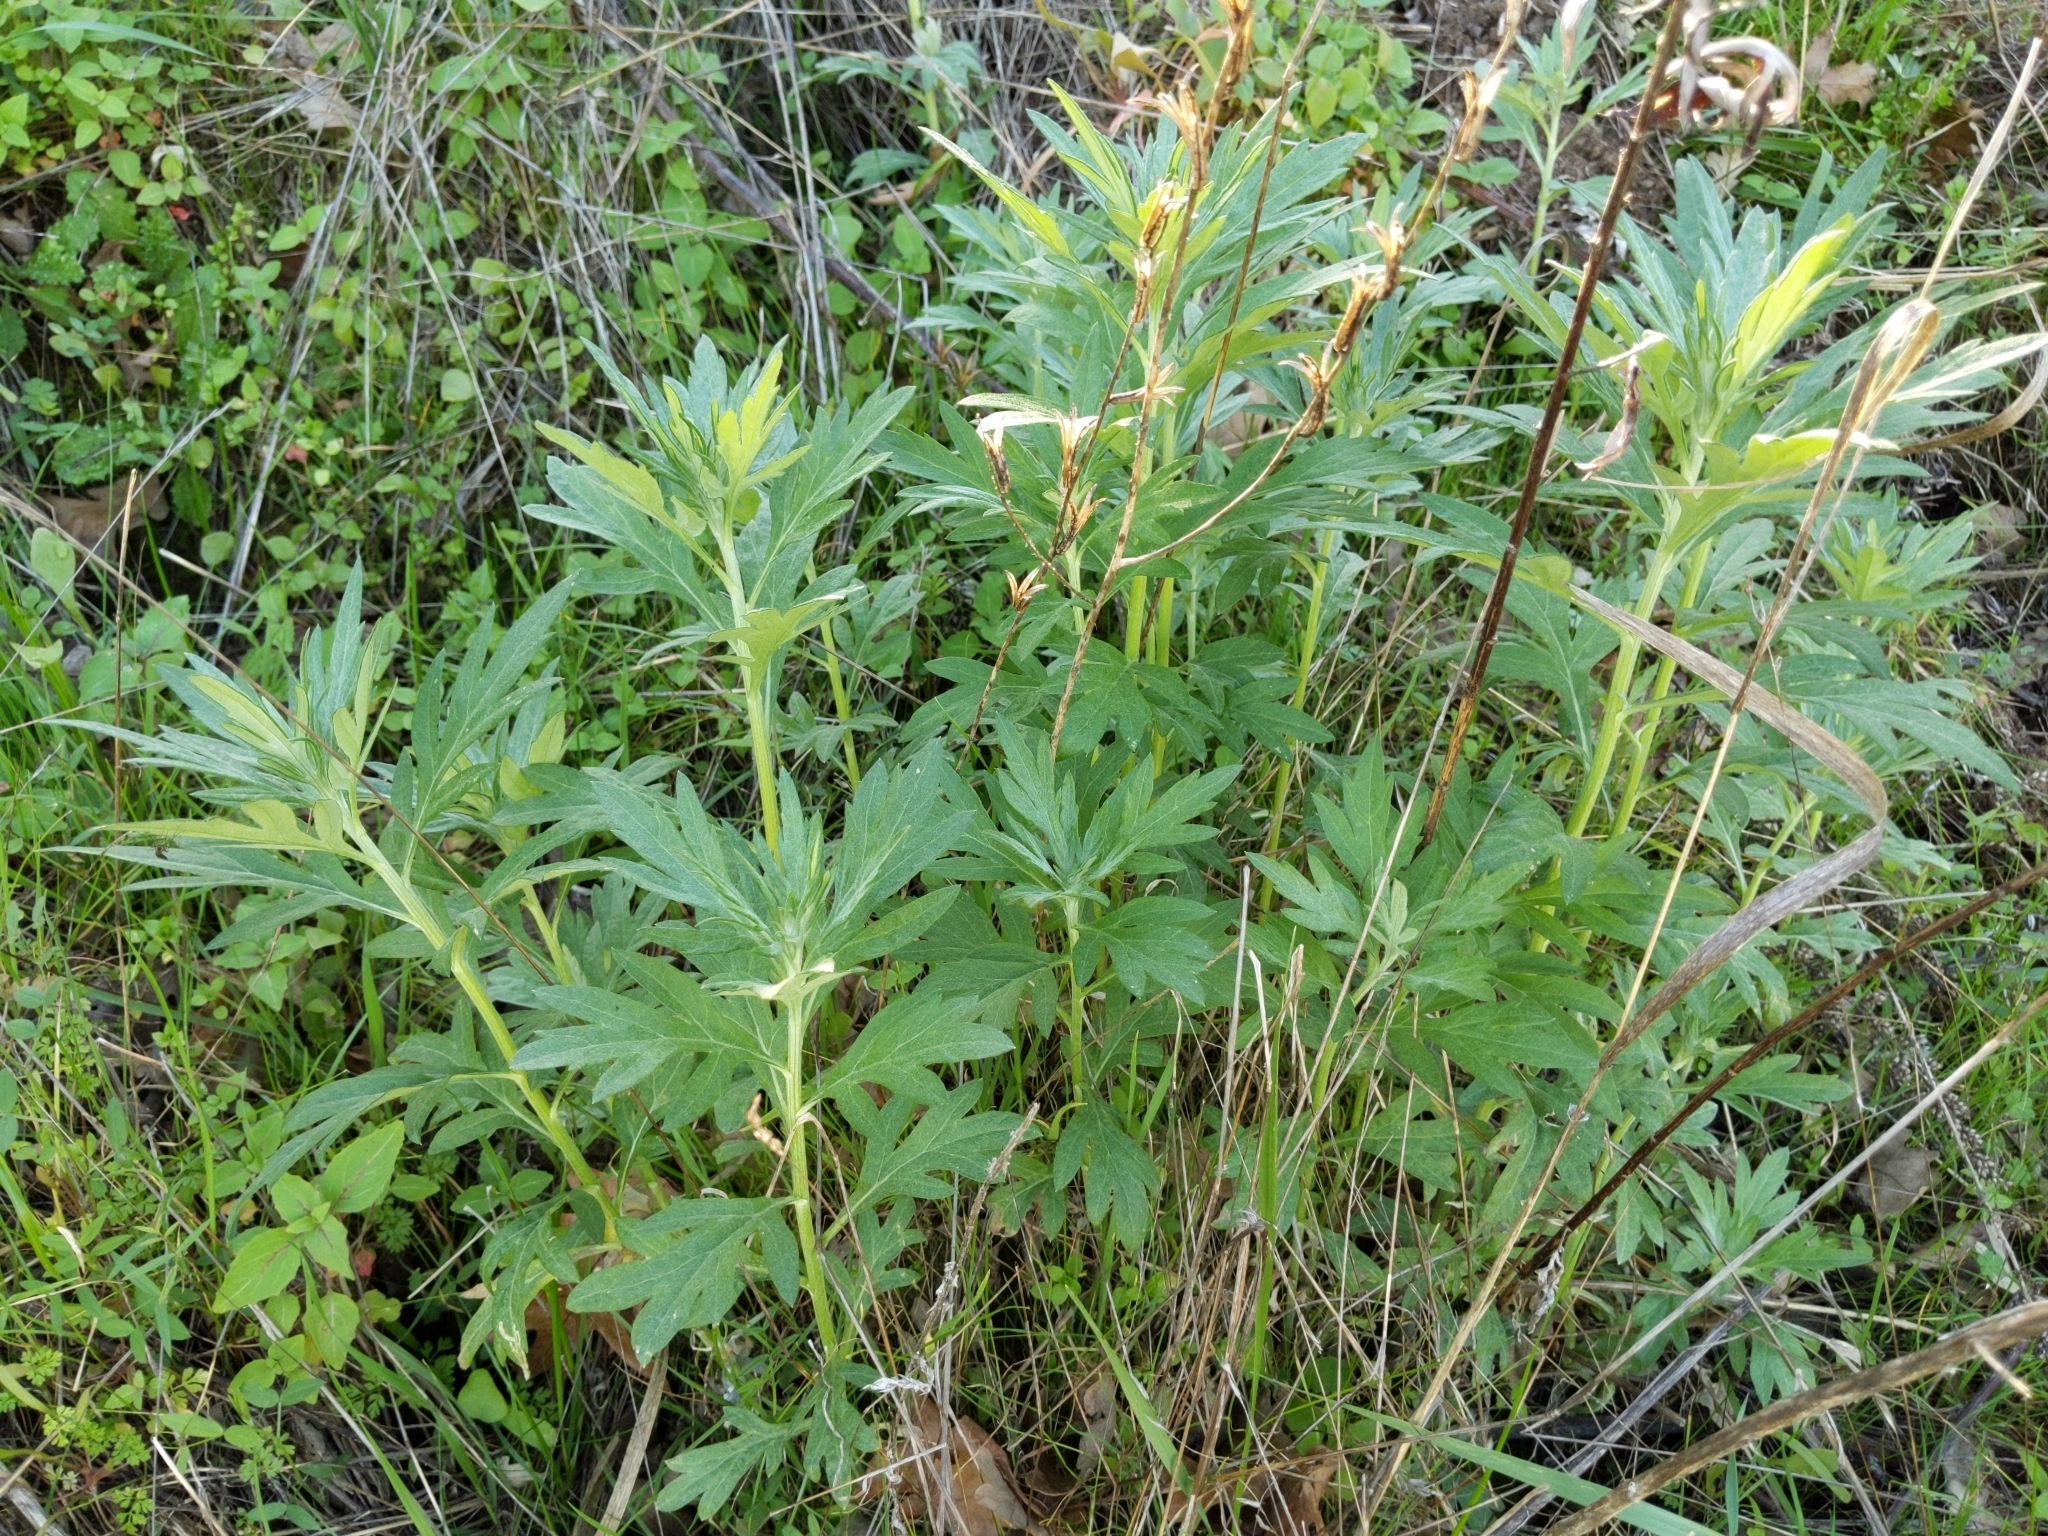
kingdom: Plantae
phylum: Tracheophyta
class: Magnoliopsida
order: Asterales
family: Asteraceae
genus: Artemisia
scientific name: Artemisia douglasiana
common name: Northwest mugwort
